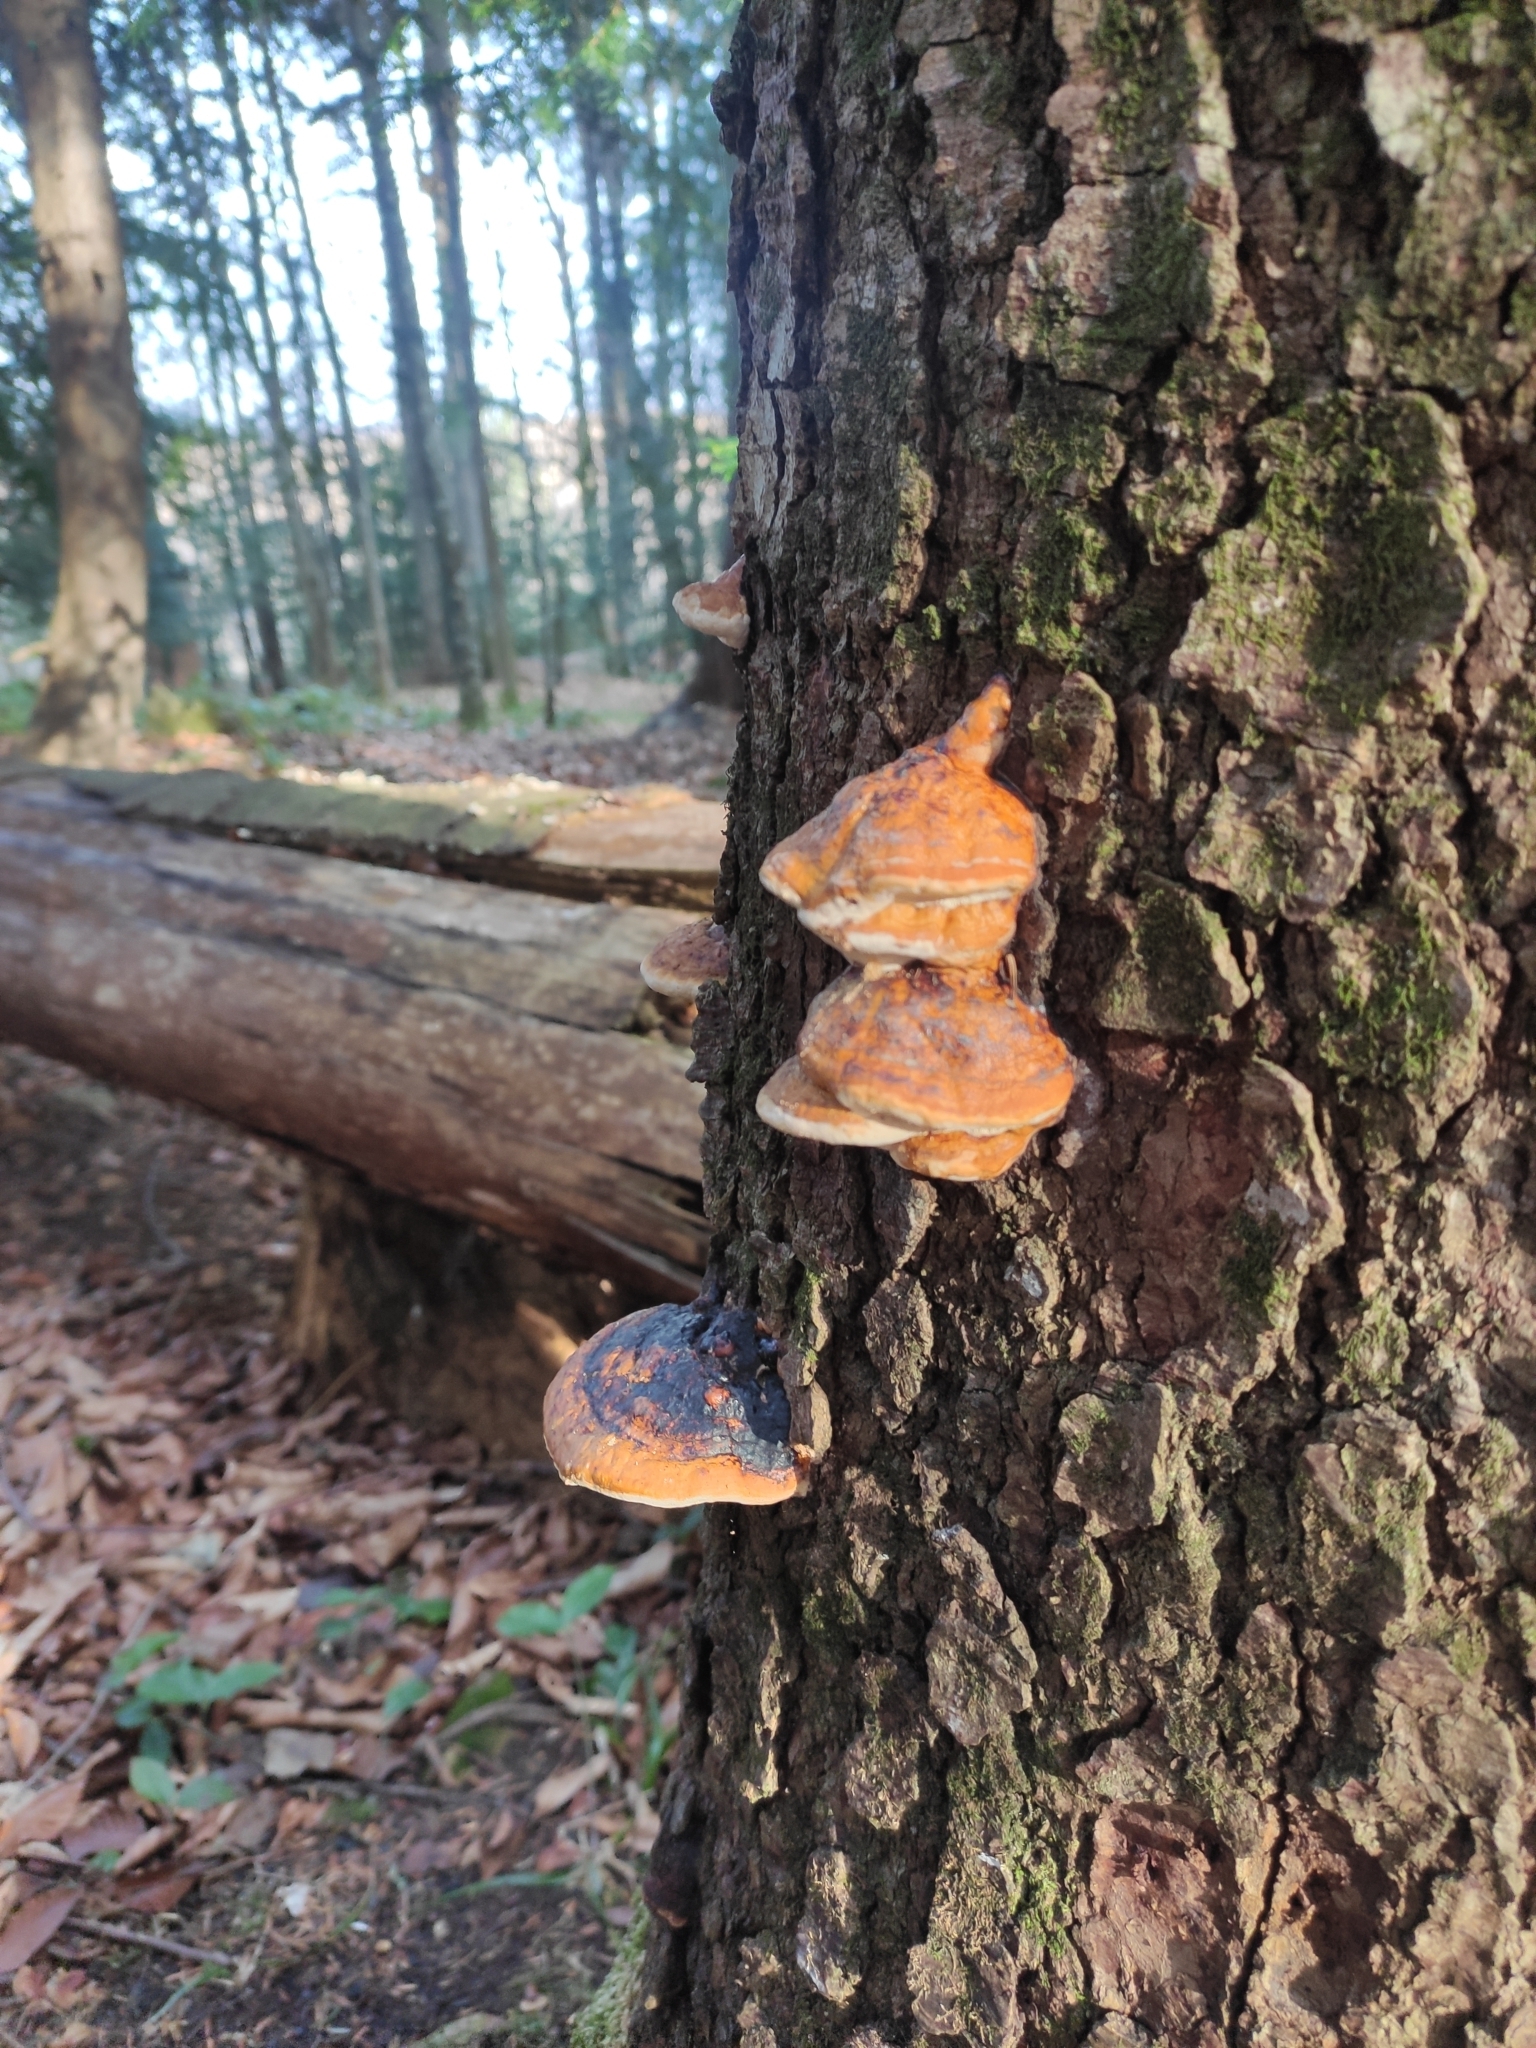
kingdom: Fungi
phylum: Basidiomycota
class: Agaricomycetes
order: Polyporales
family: Fomitopsidaceae
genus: Fomitopsis
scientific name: Fomitopsis pinicola
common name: Red-belted bracket
